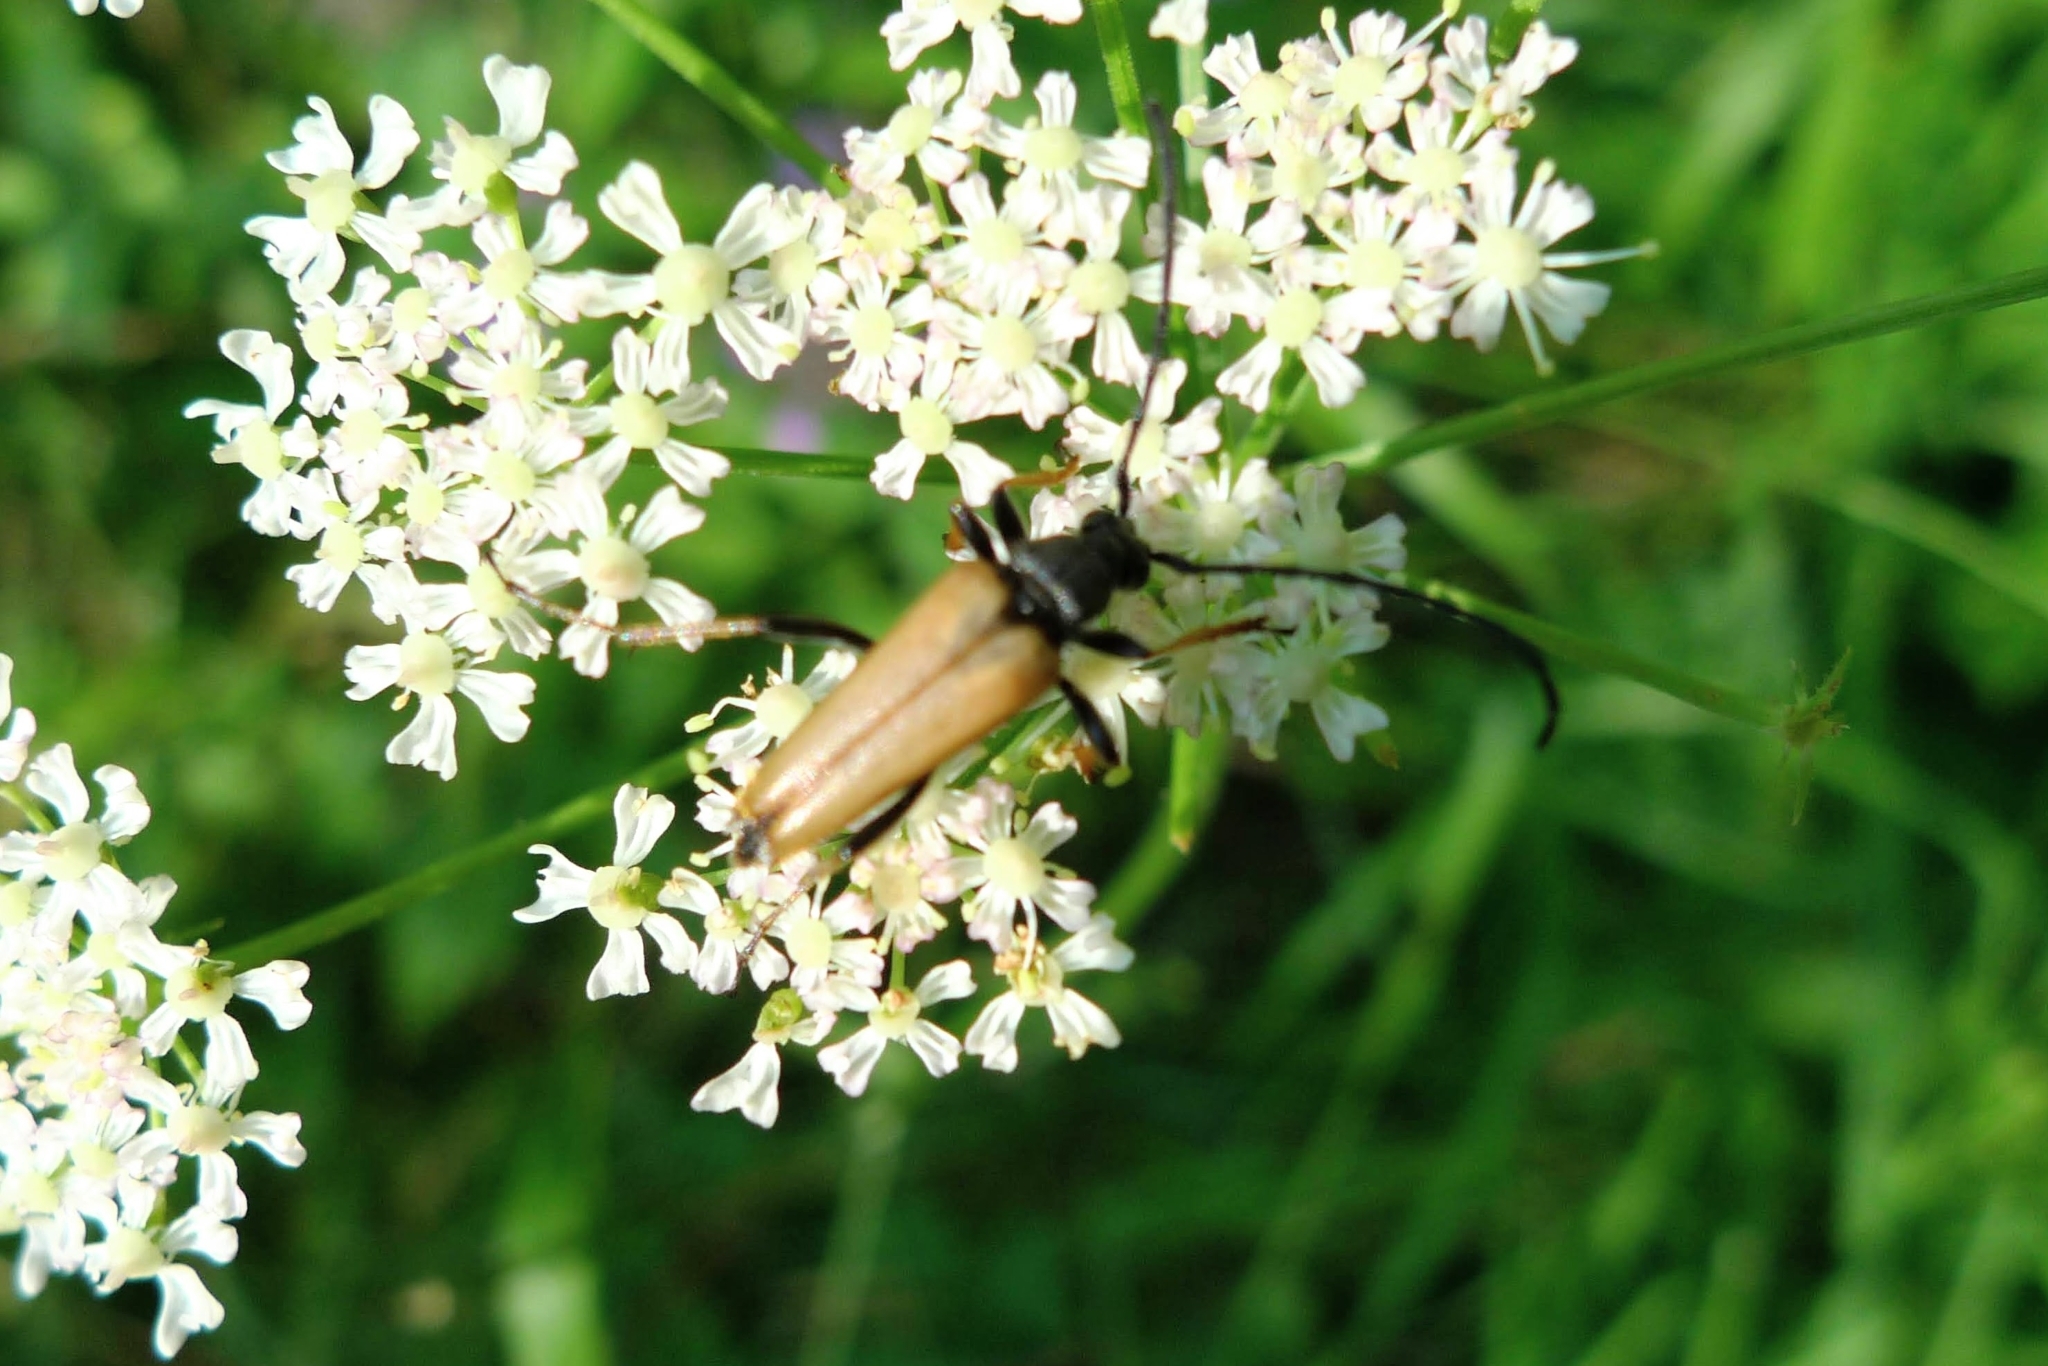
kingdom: Animalia
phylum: Arthropoda
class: Insecta
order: Coleoptera
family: Cerambycidae
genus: Stictoleptura
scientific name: Stictoleptura rubra
